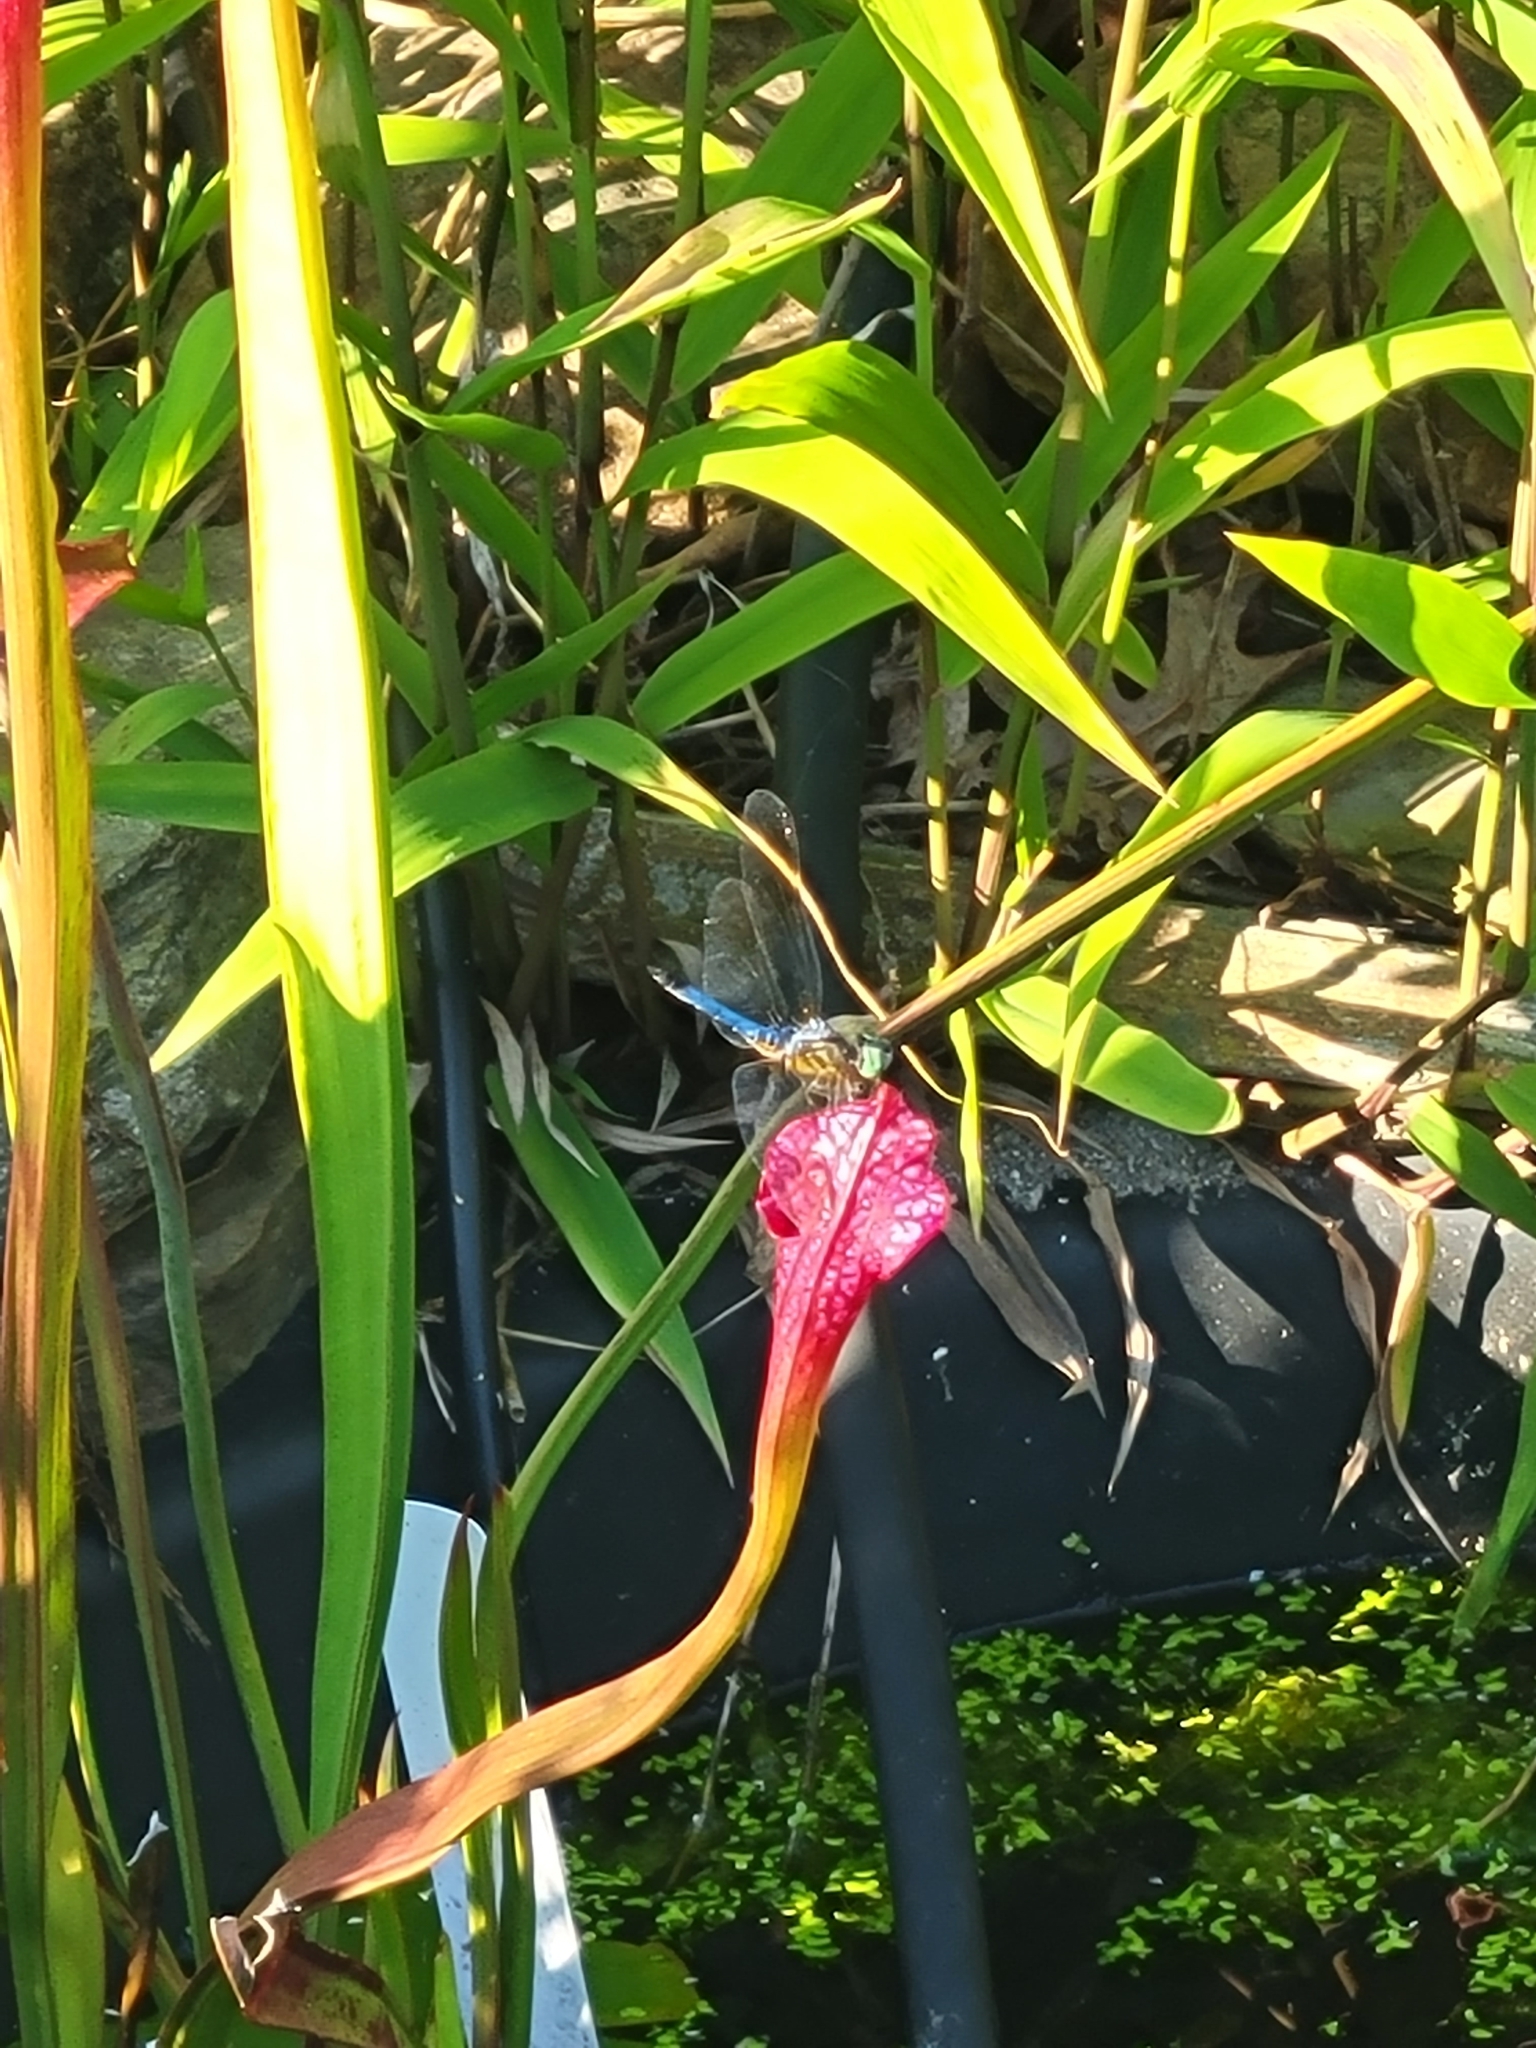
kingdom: Animalia
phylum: Arthropoda
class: Insecta
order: Odonata
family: Libellulidae
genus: Pachydiplax
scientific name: Pachydiplax longipennis
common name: Blue dasher
